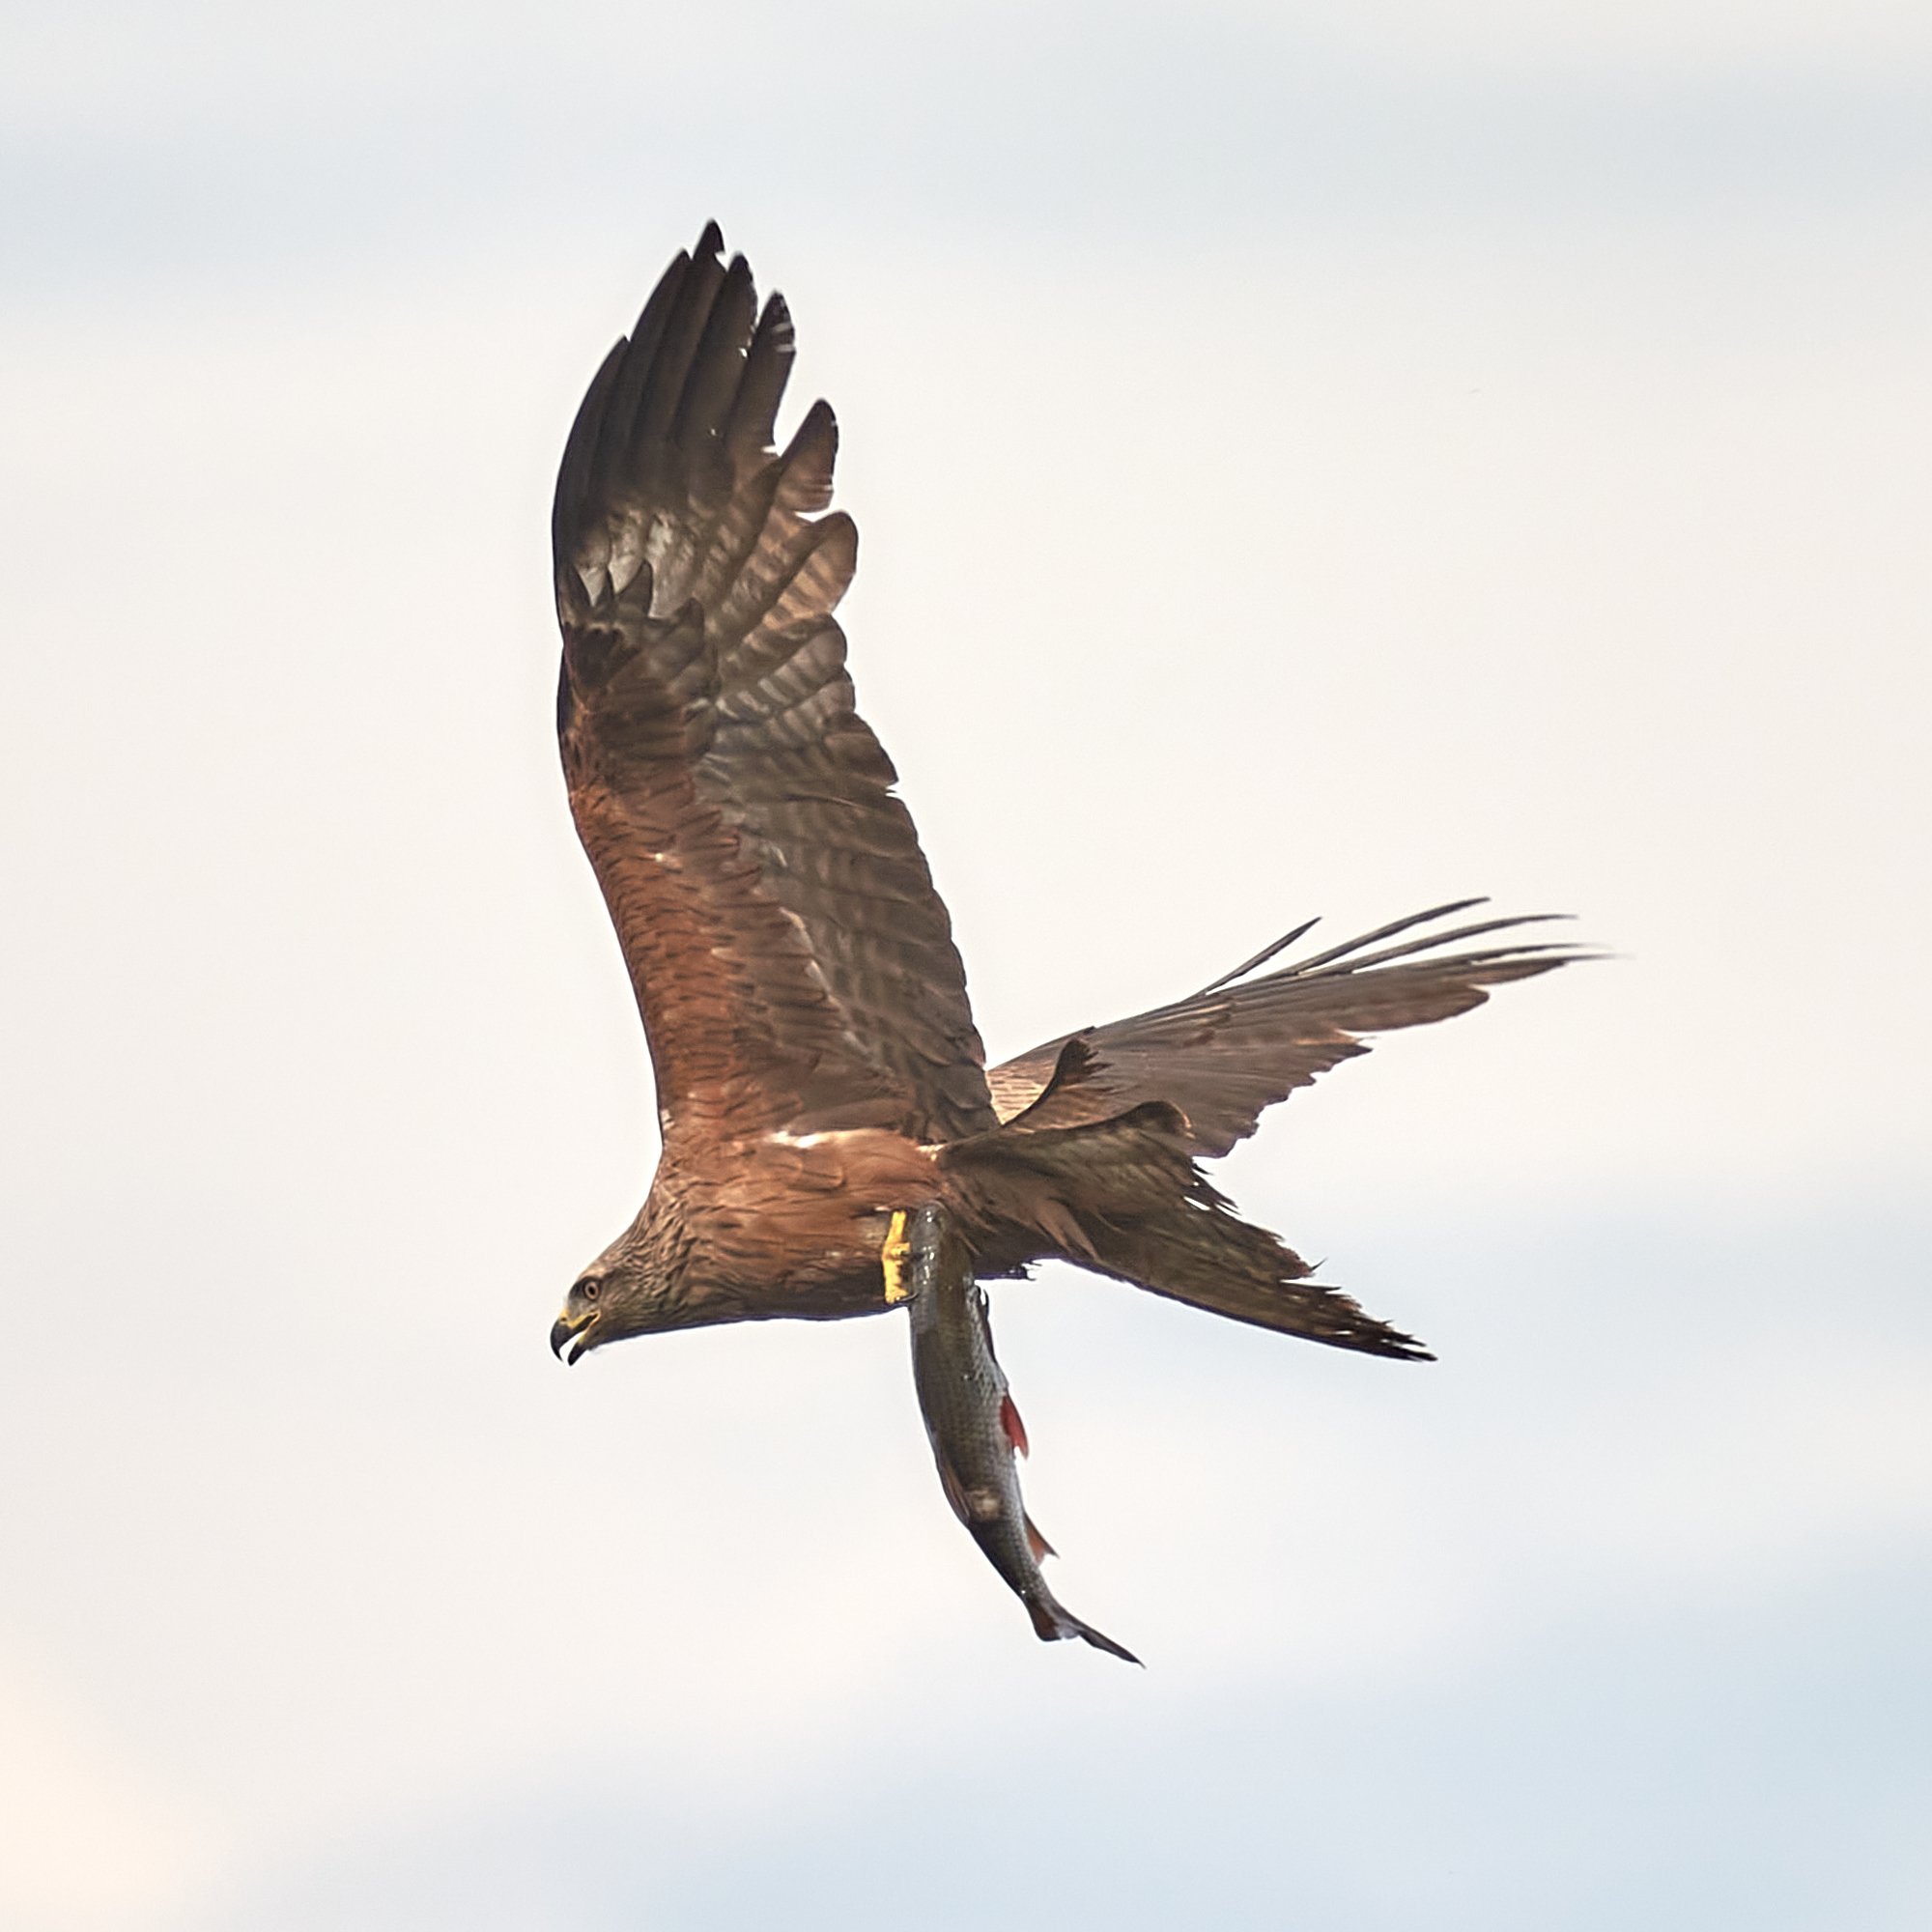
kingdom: Animalia
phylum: Chordata
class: Aves
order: Accipitriformes
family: Accipitridae
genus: Milvus
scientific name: Milvus migrans
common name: Black kite
